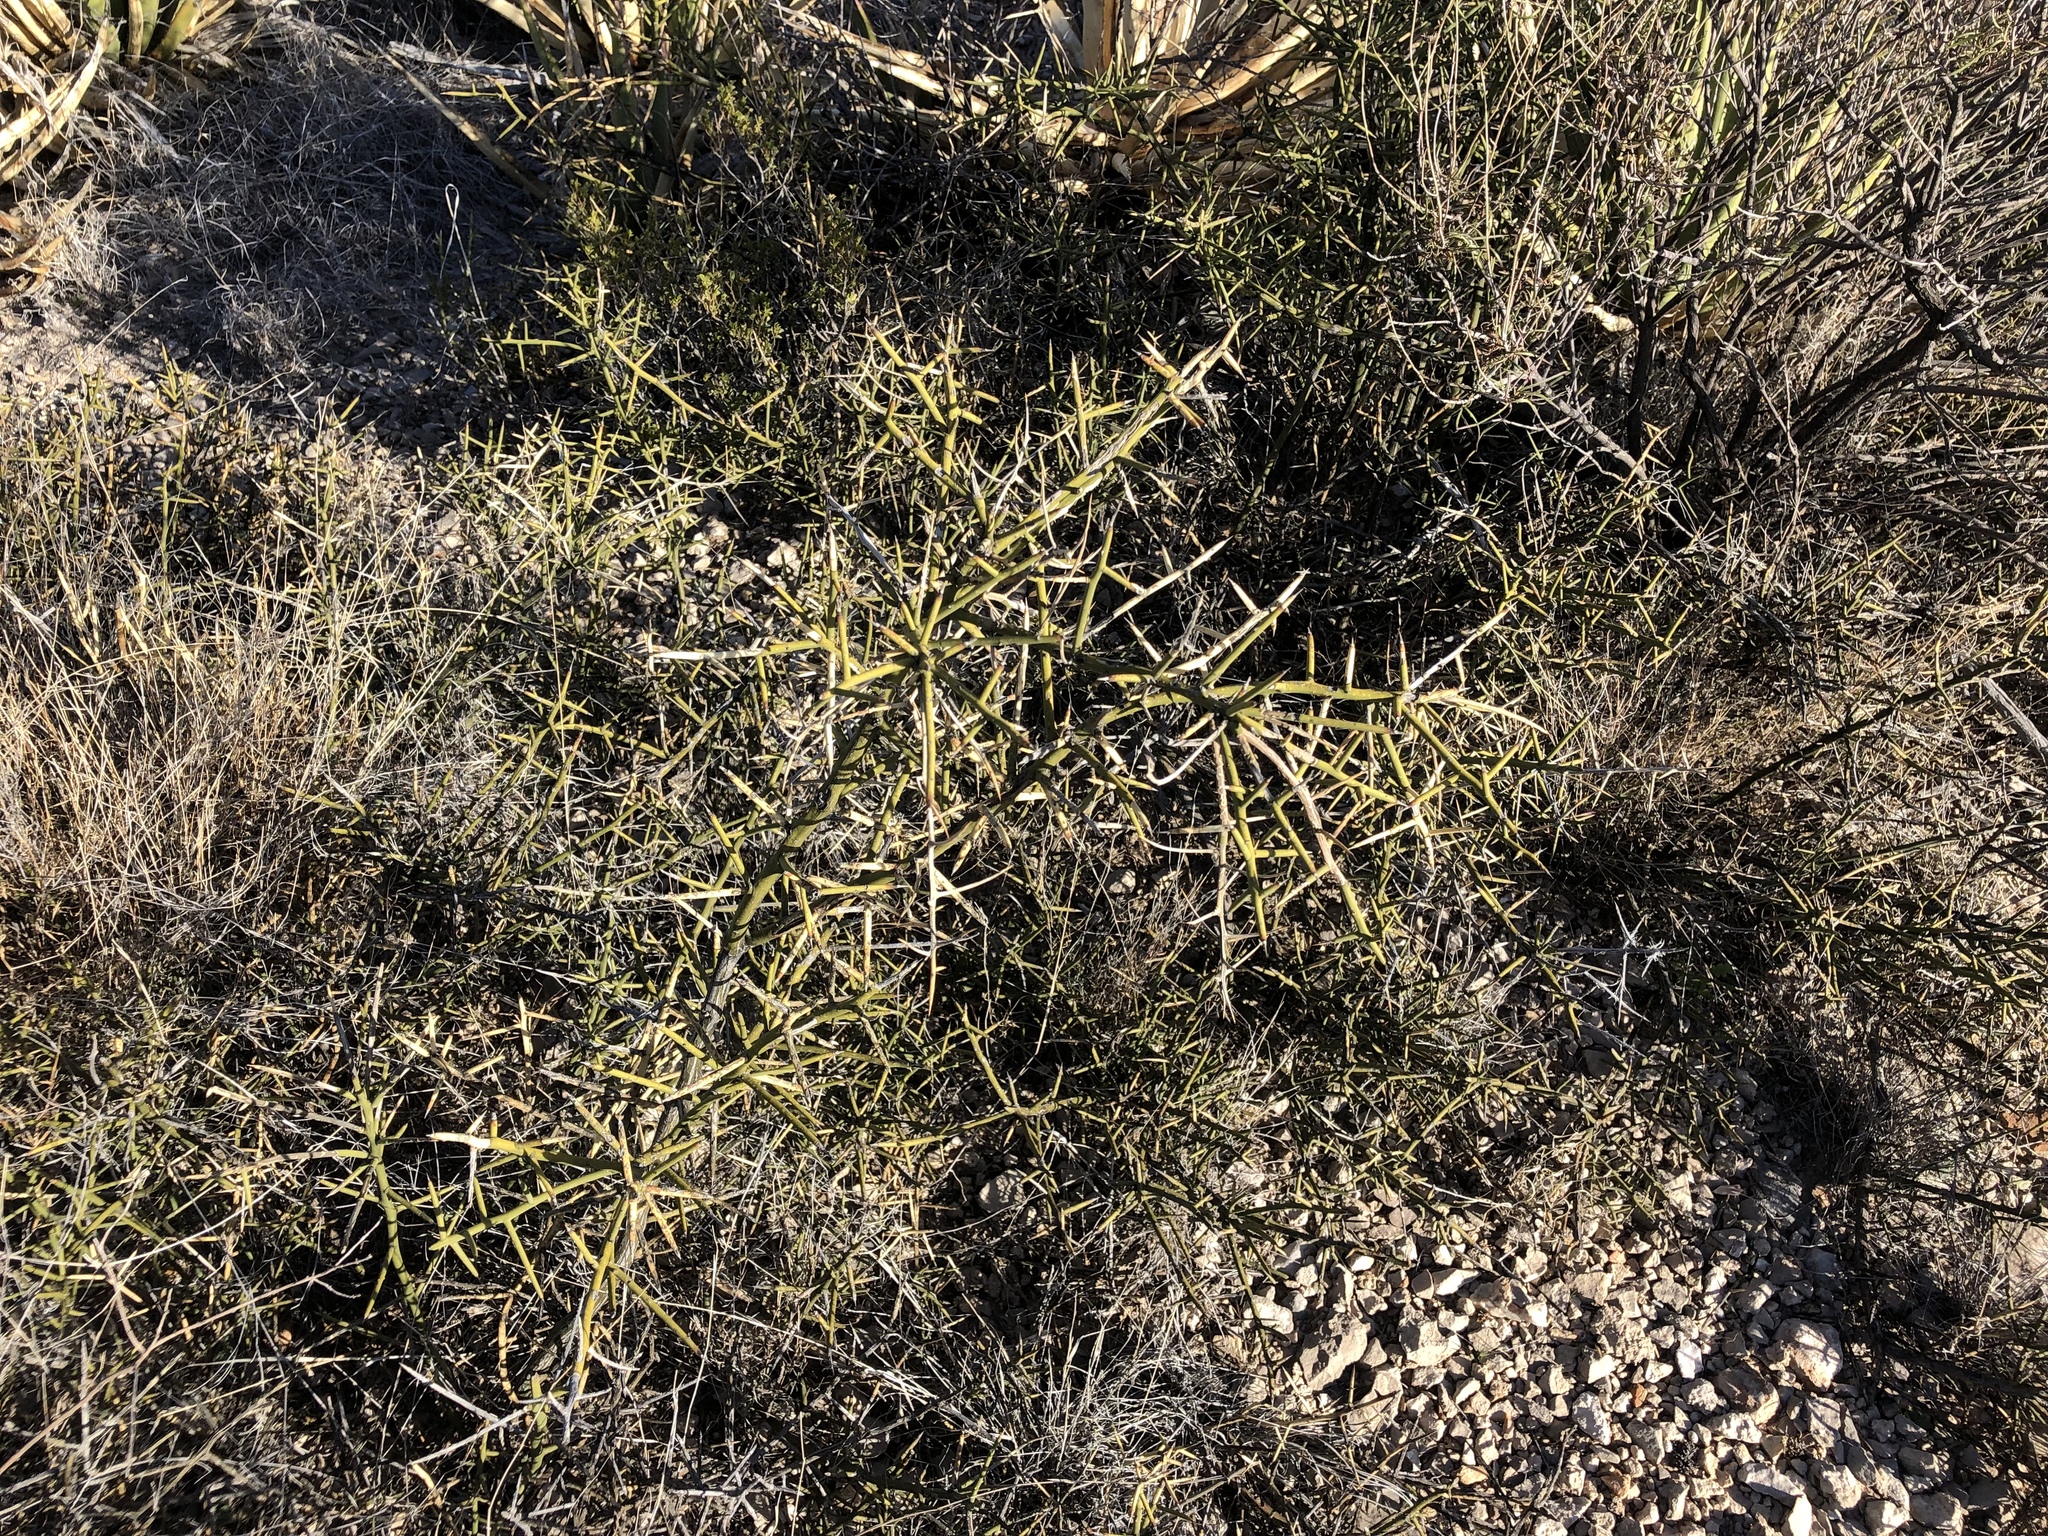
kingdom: Plantae
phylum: Tracheophyta
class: Magnoliopsida
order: Brassicales
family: Koeberliniaceae
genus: Koeberlinia
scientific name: Koeberlinia spinosa
